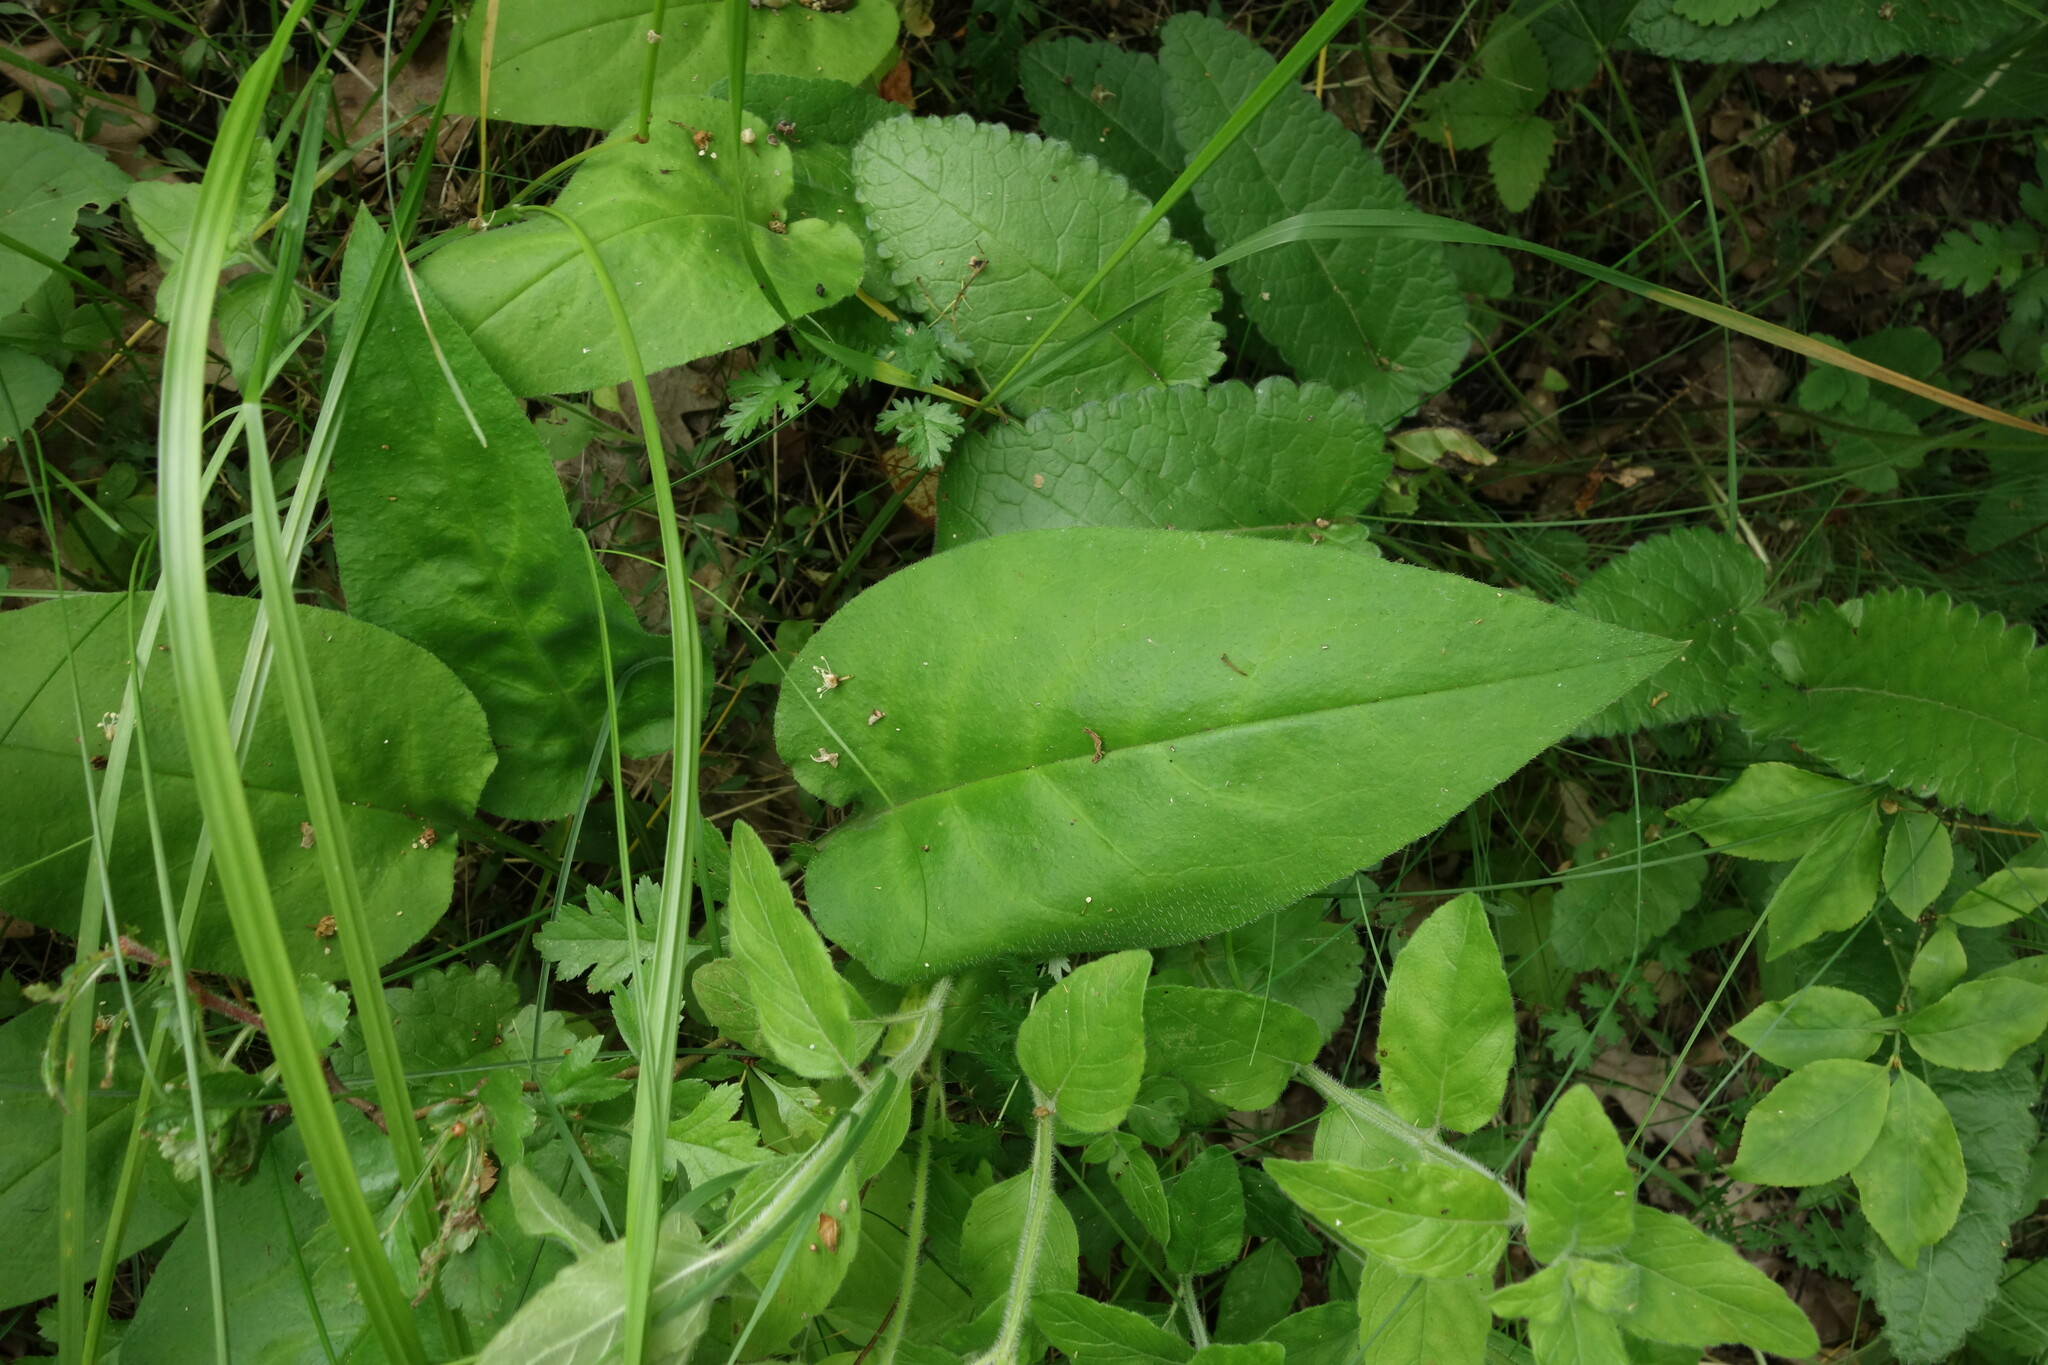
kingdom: Plantae
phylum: Tracheophyta
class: Magnoliopsida
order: Boraginales
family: Boraginaceae
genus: Pulmonaria
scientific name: Pulmonaria obscura
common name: Suffolk lungwort
